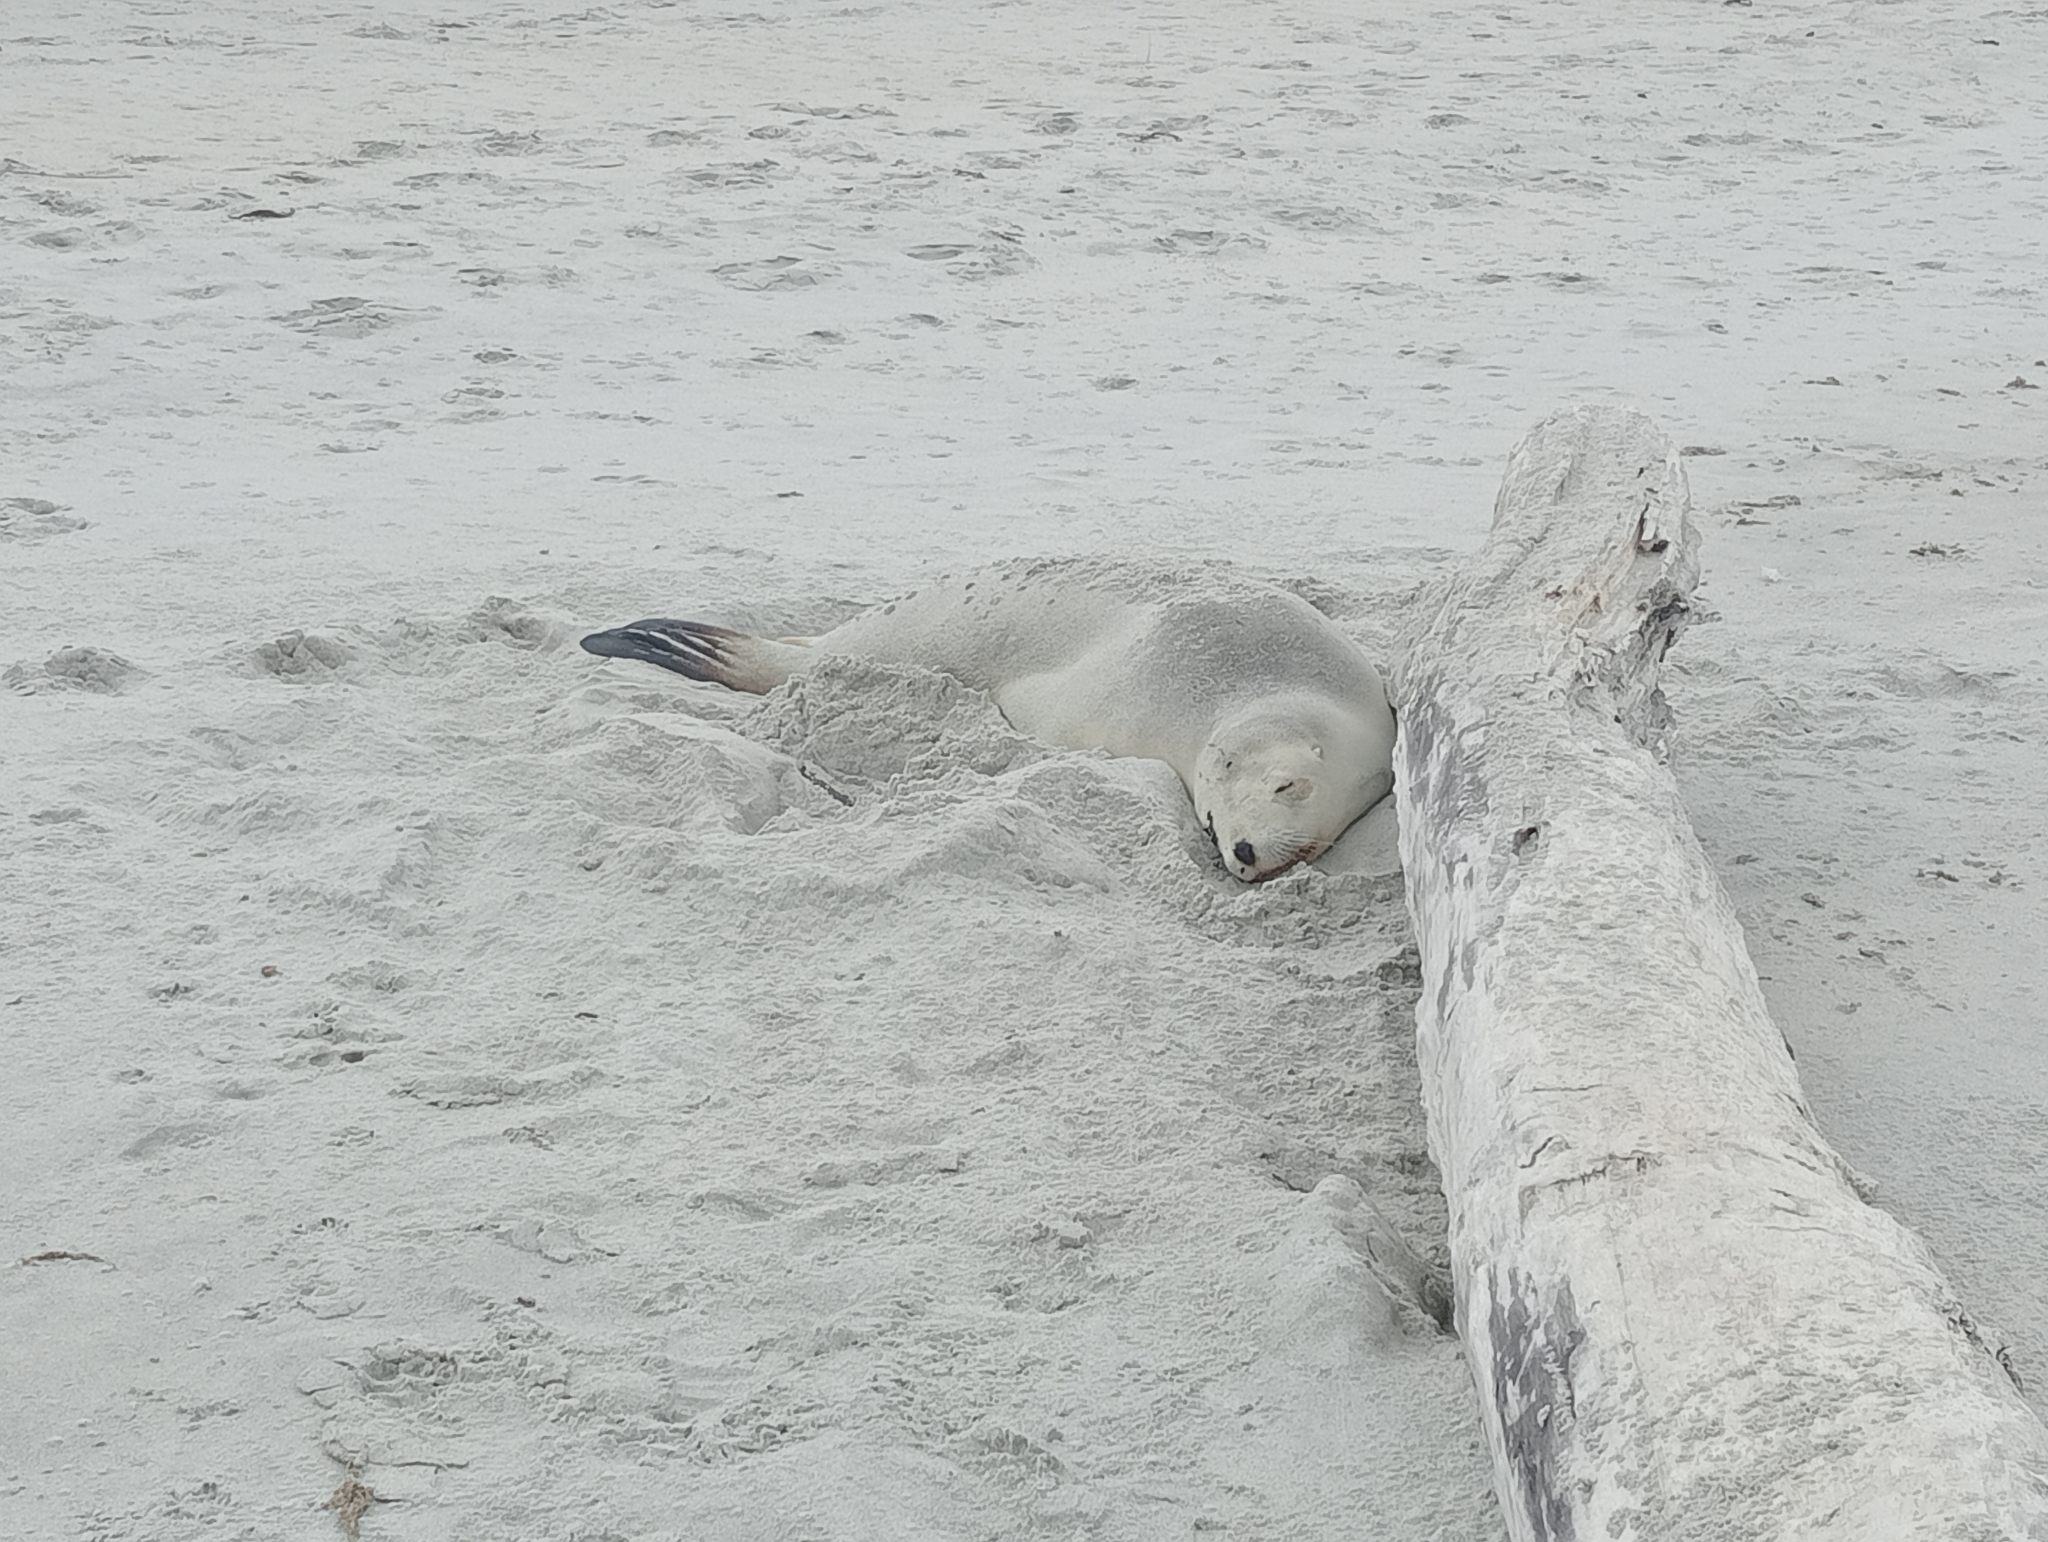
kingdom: Animalia
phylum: Chordata
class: Mammalia
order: Carnivora
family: Otariidae
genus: Phocarctos
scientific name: Phocarctos hookeri
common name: New zealand sea lion
